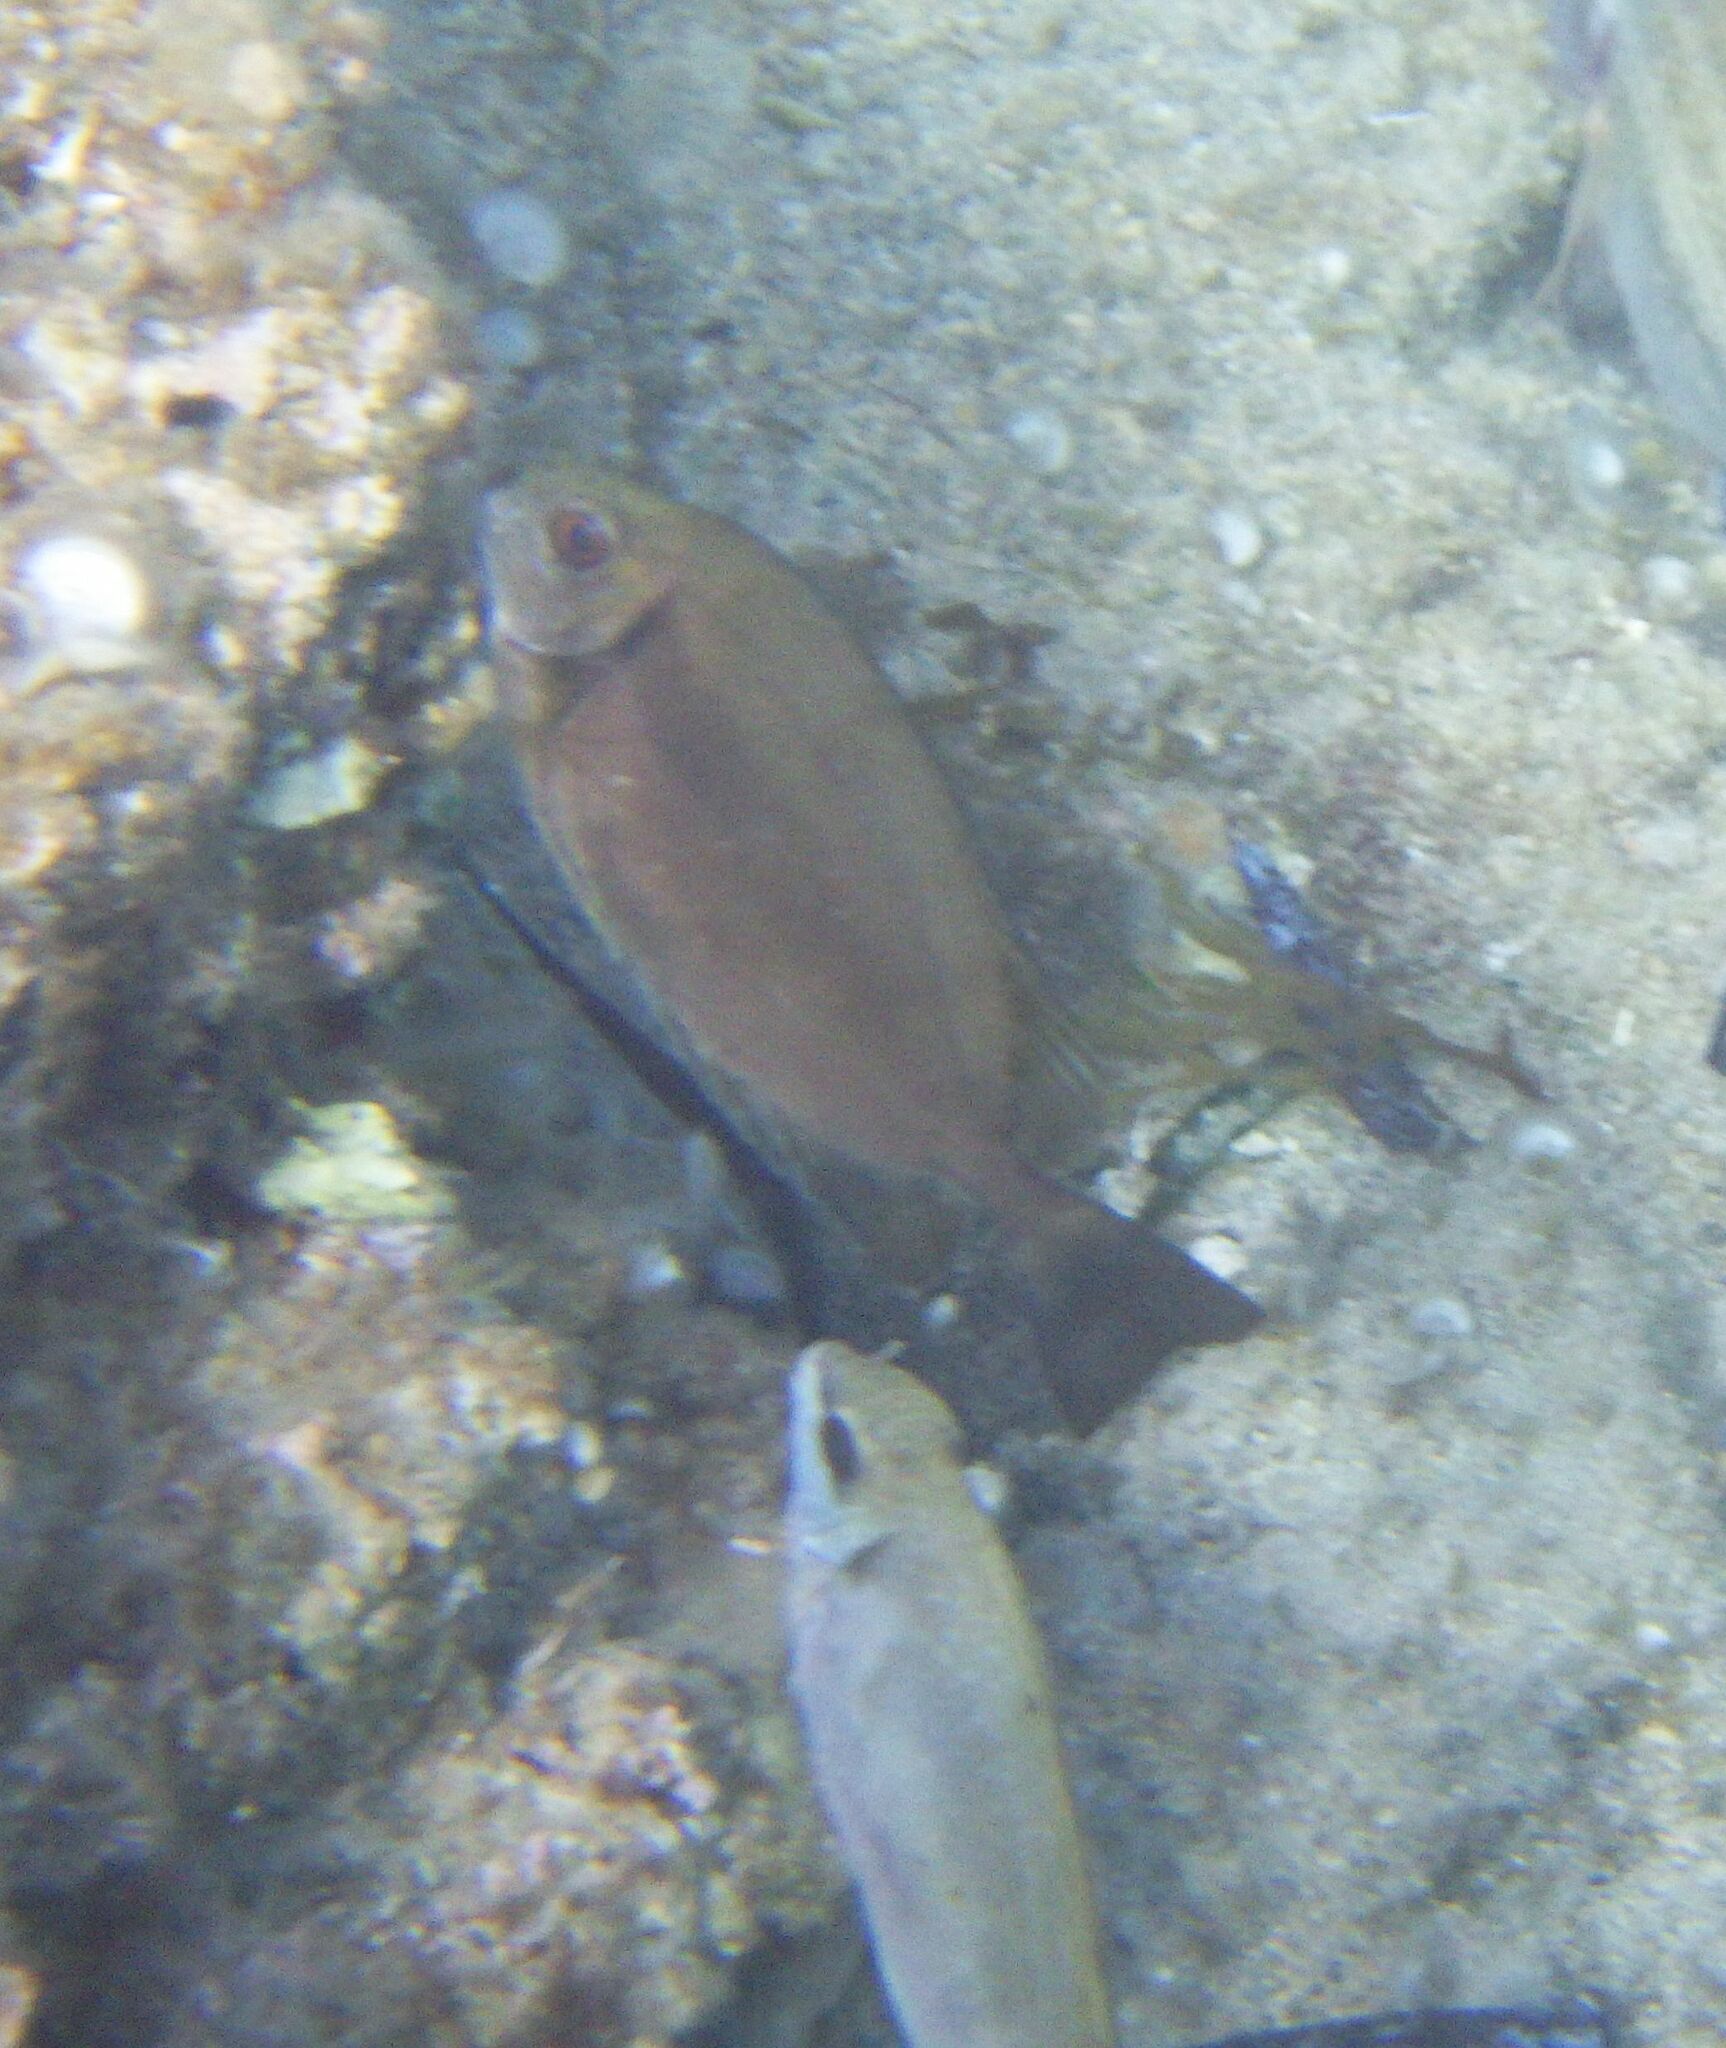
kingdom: Animalia
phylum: Chordata
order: Perciformes
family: Siganidae
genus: Siganus
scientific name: Siganus luridus
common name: Dusky spinefoot
